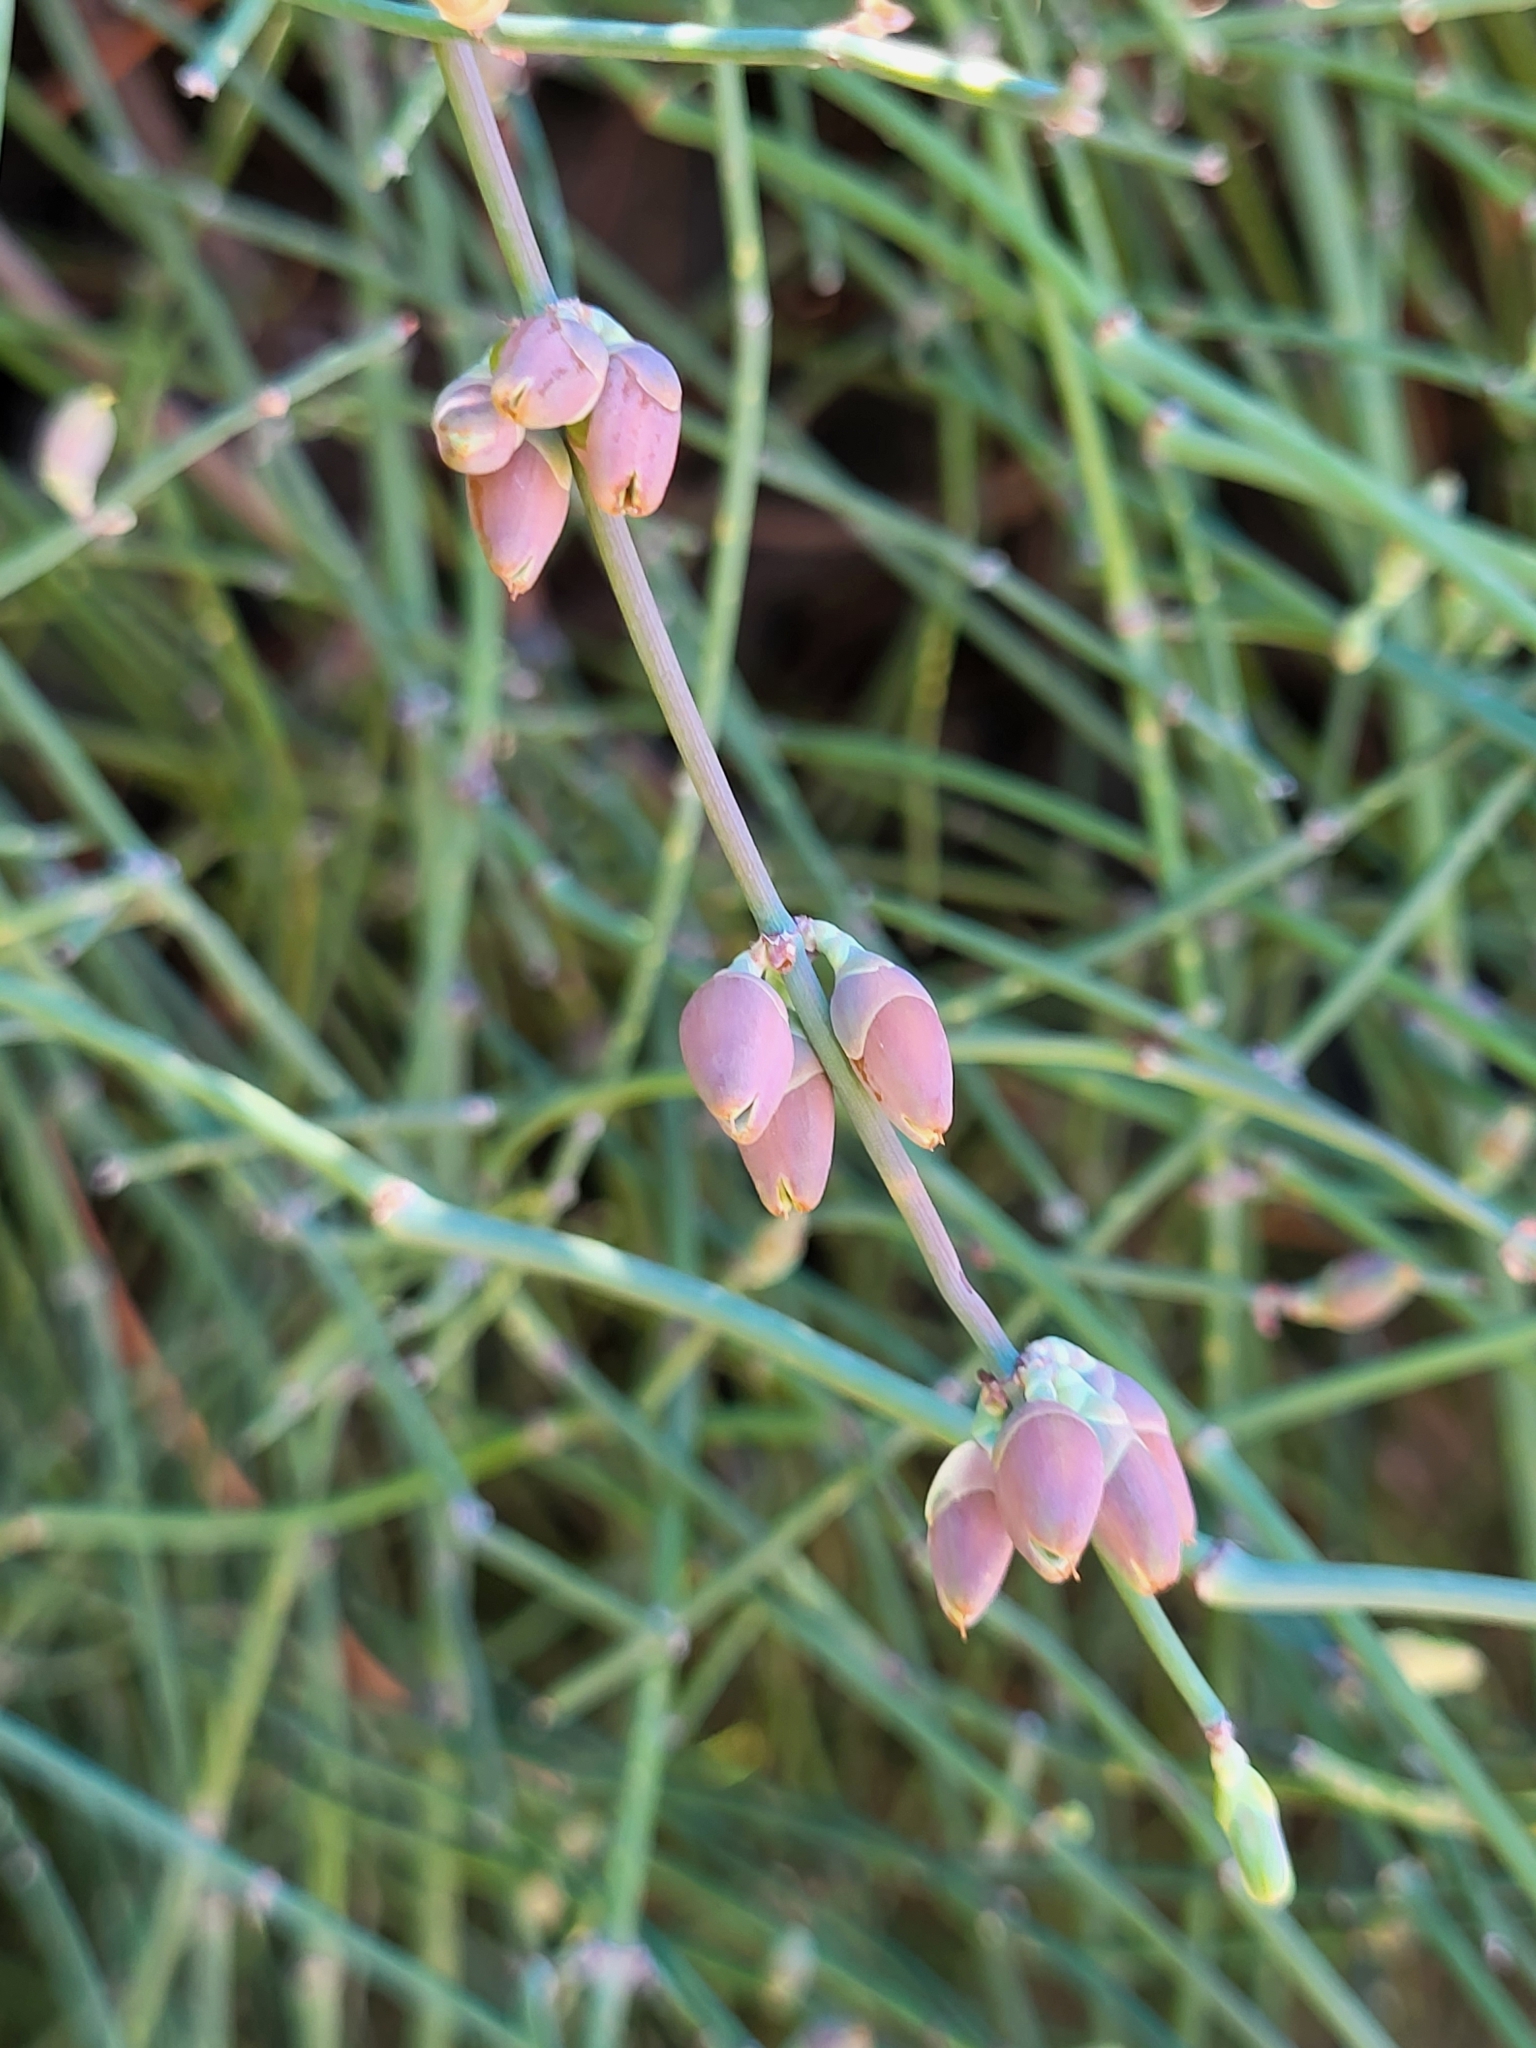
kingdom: Plantae
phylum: Tracheophyta
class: Gnetopsida
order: Ephedrales
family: Ephedraceae
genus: Ephedra
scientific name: Ephedra foeminea
